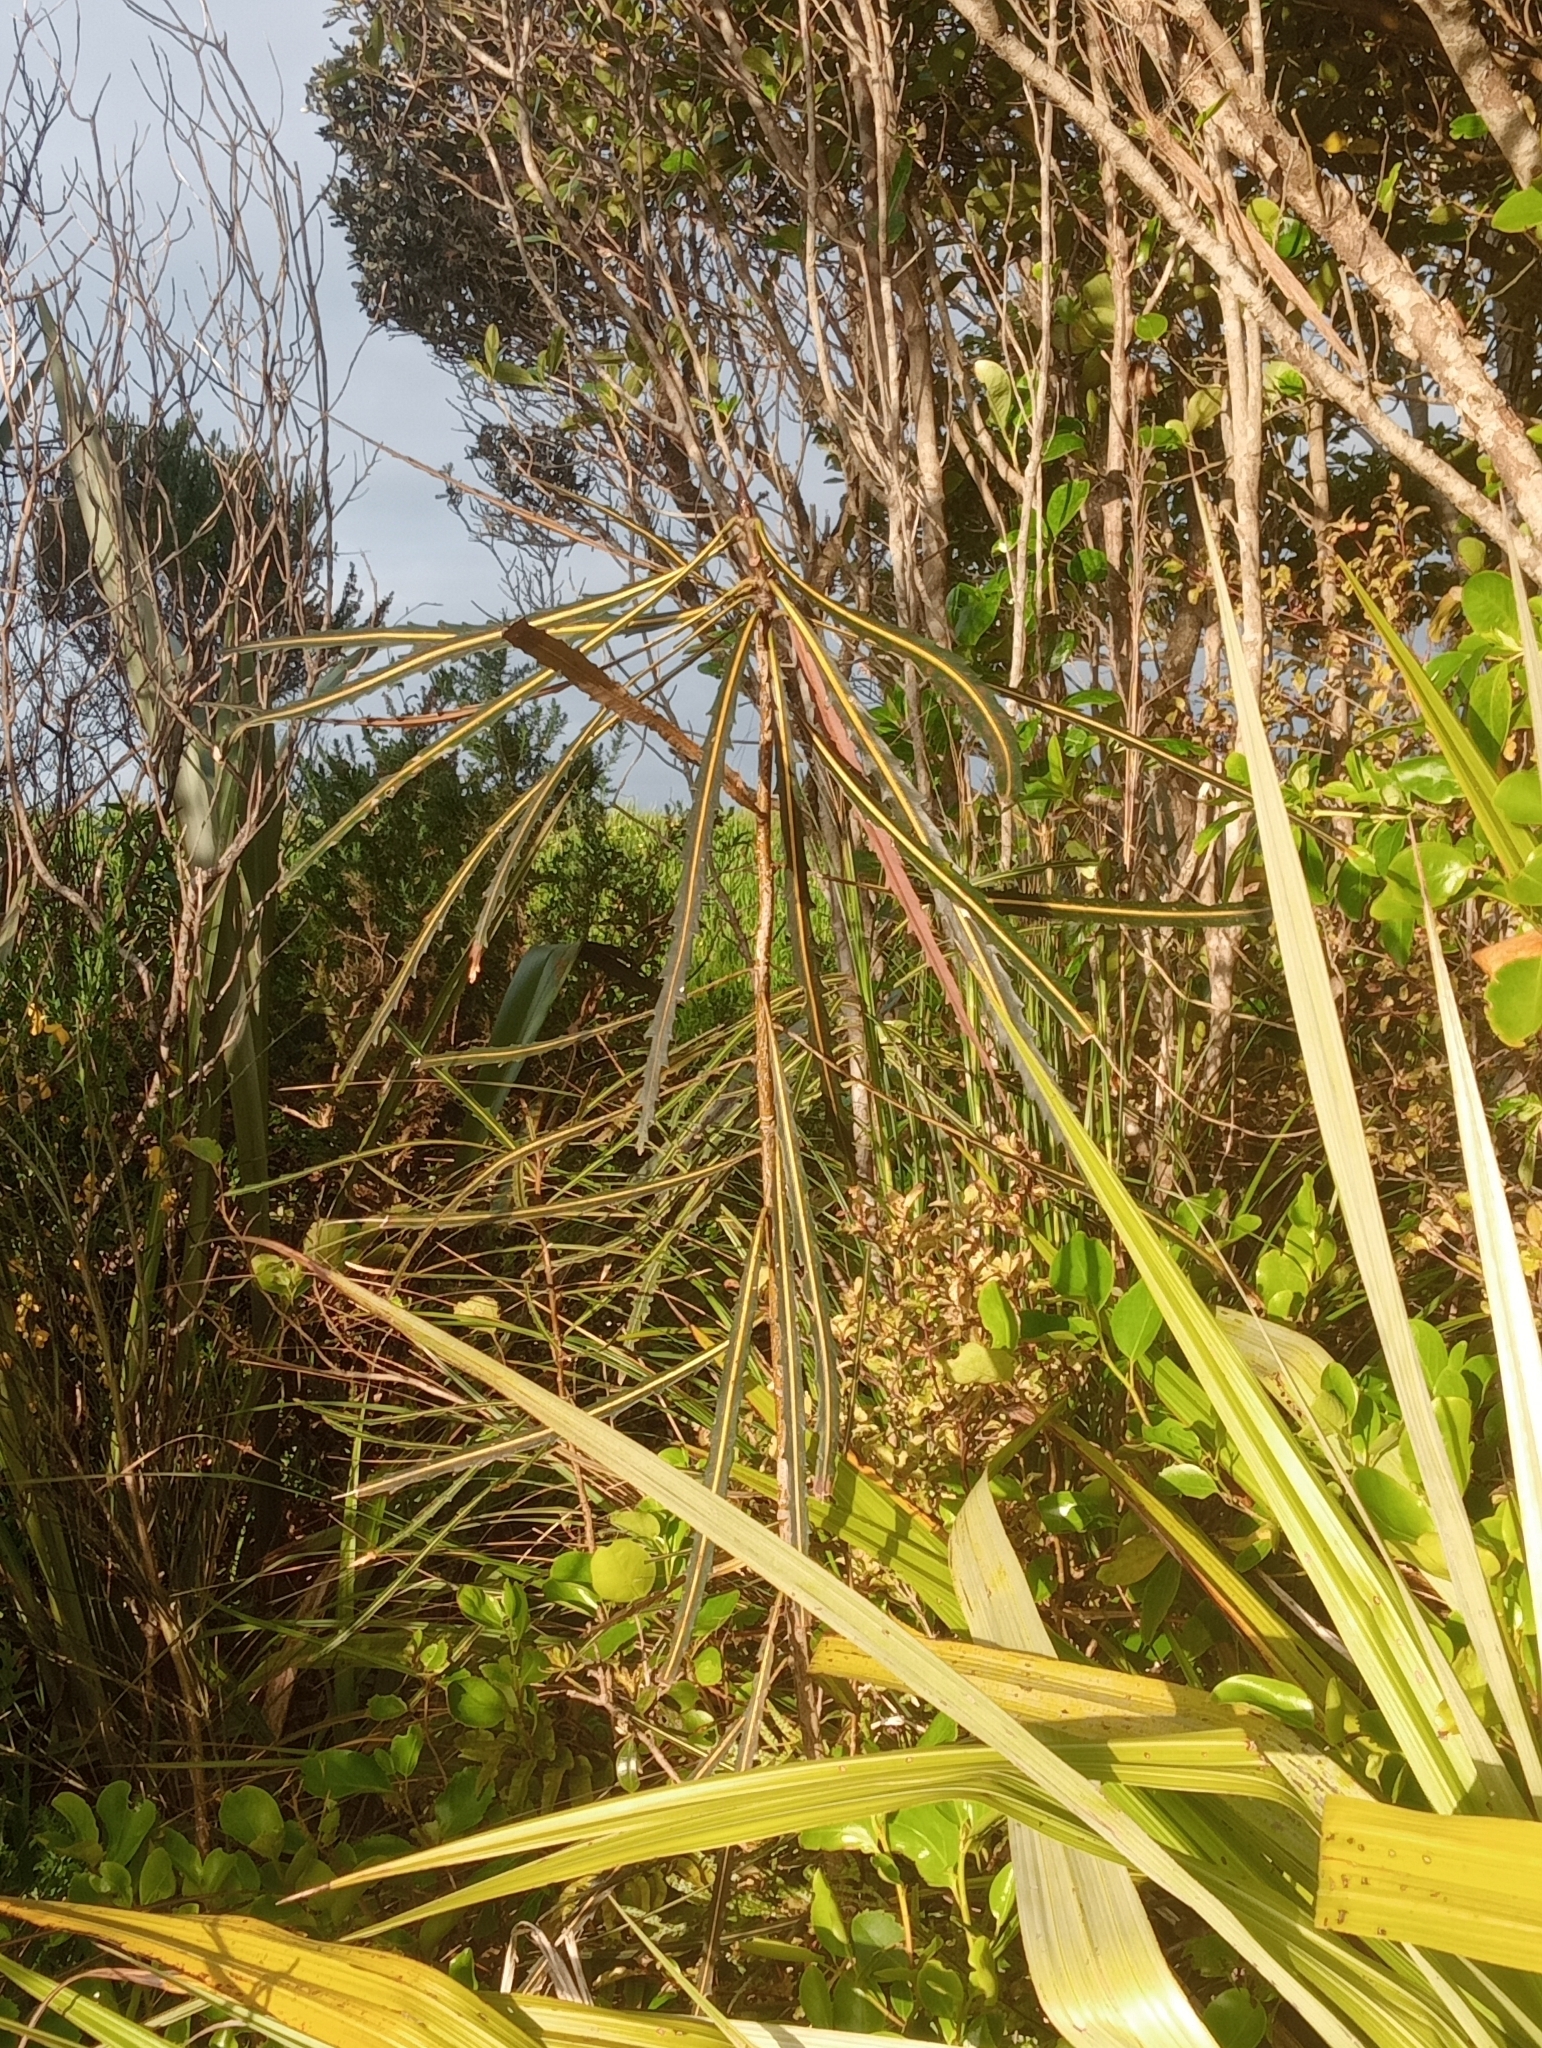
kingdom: Plantae
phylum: Tracheophyta
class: Magnoliopsida
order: Apiales
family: Araliaceae
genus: Pseudopanax
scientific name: Pseudopanax crassifolius
